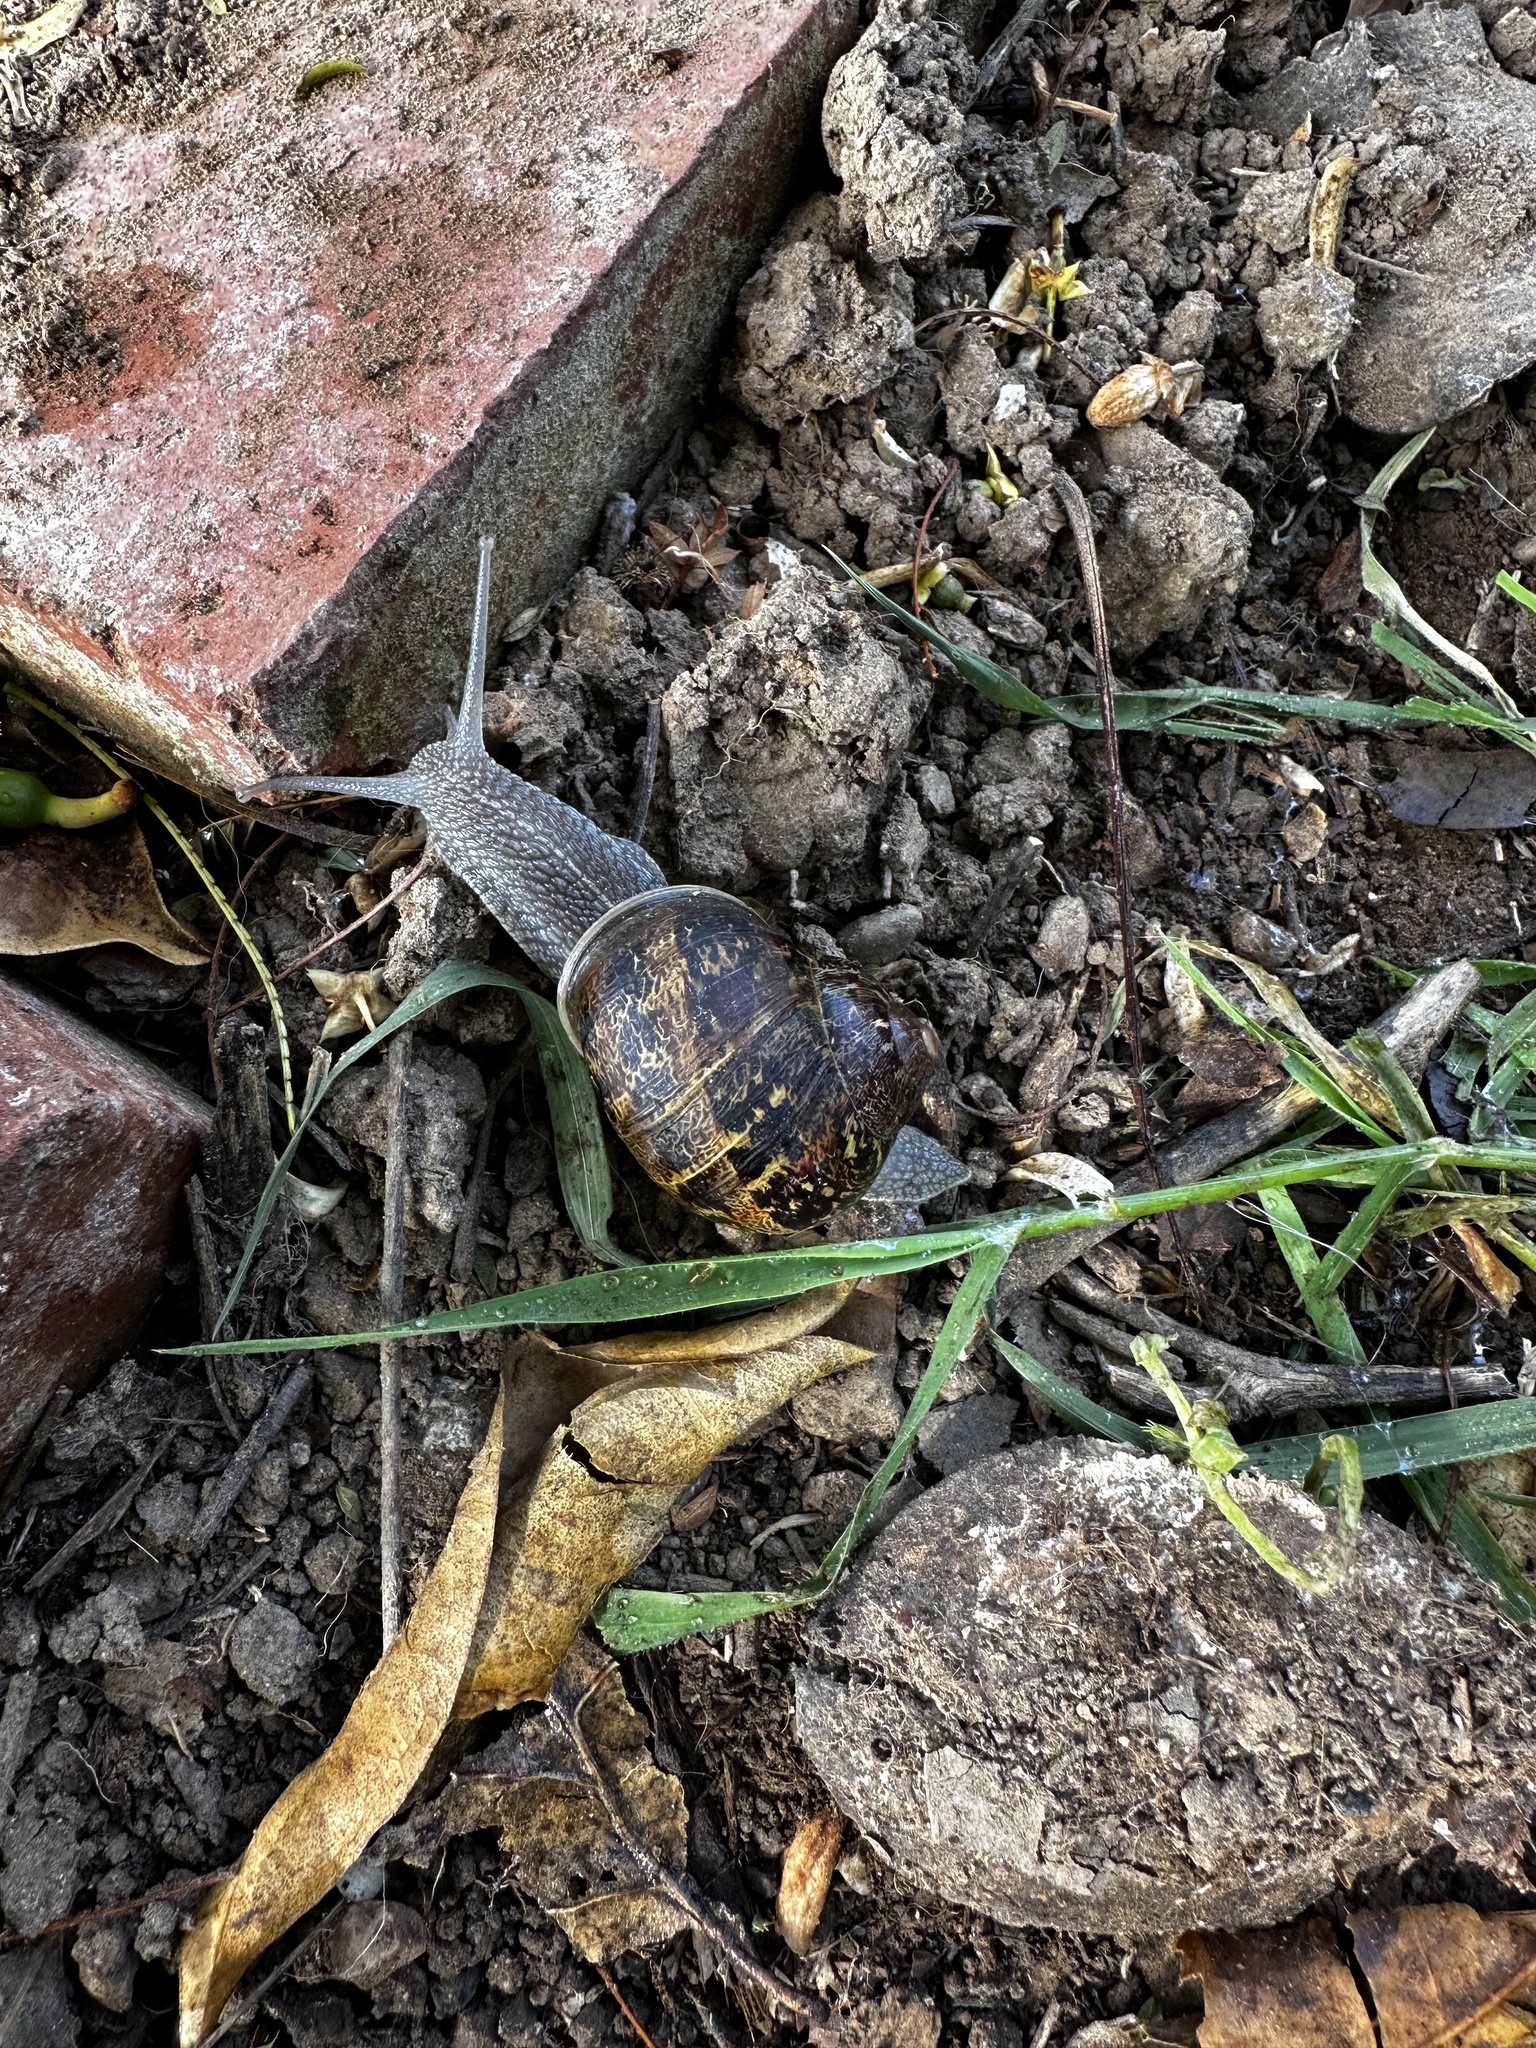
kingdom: Animalia
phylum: Mollusca
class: Gastropoda
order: Stylommatophora
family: Helicidae
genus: Cornu
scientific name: Cornu aspersum
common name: Brown garden snail
